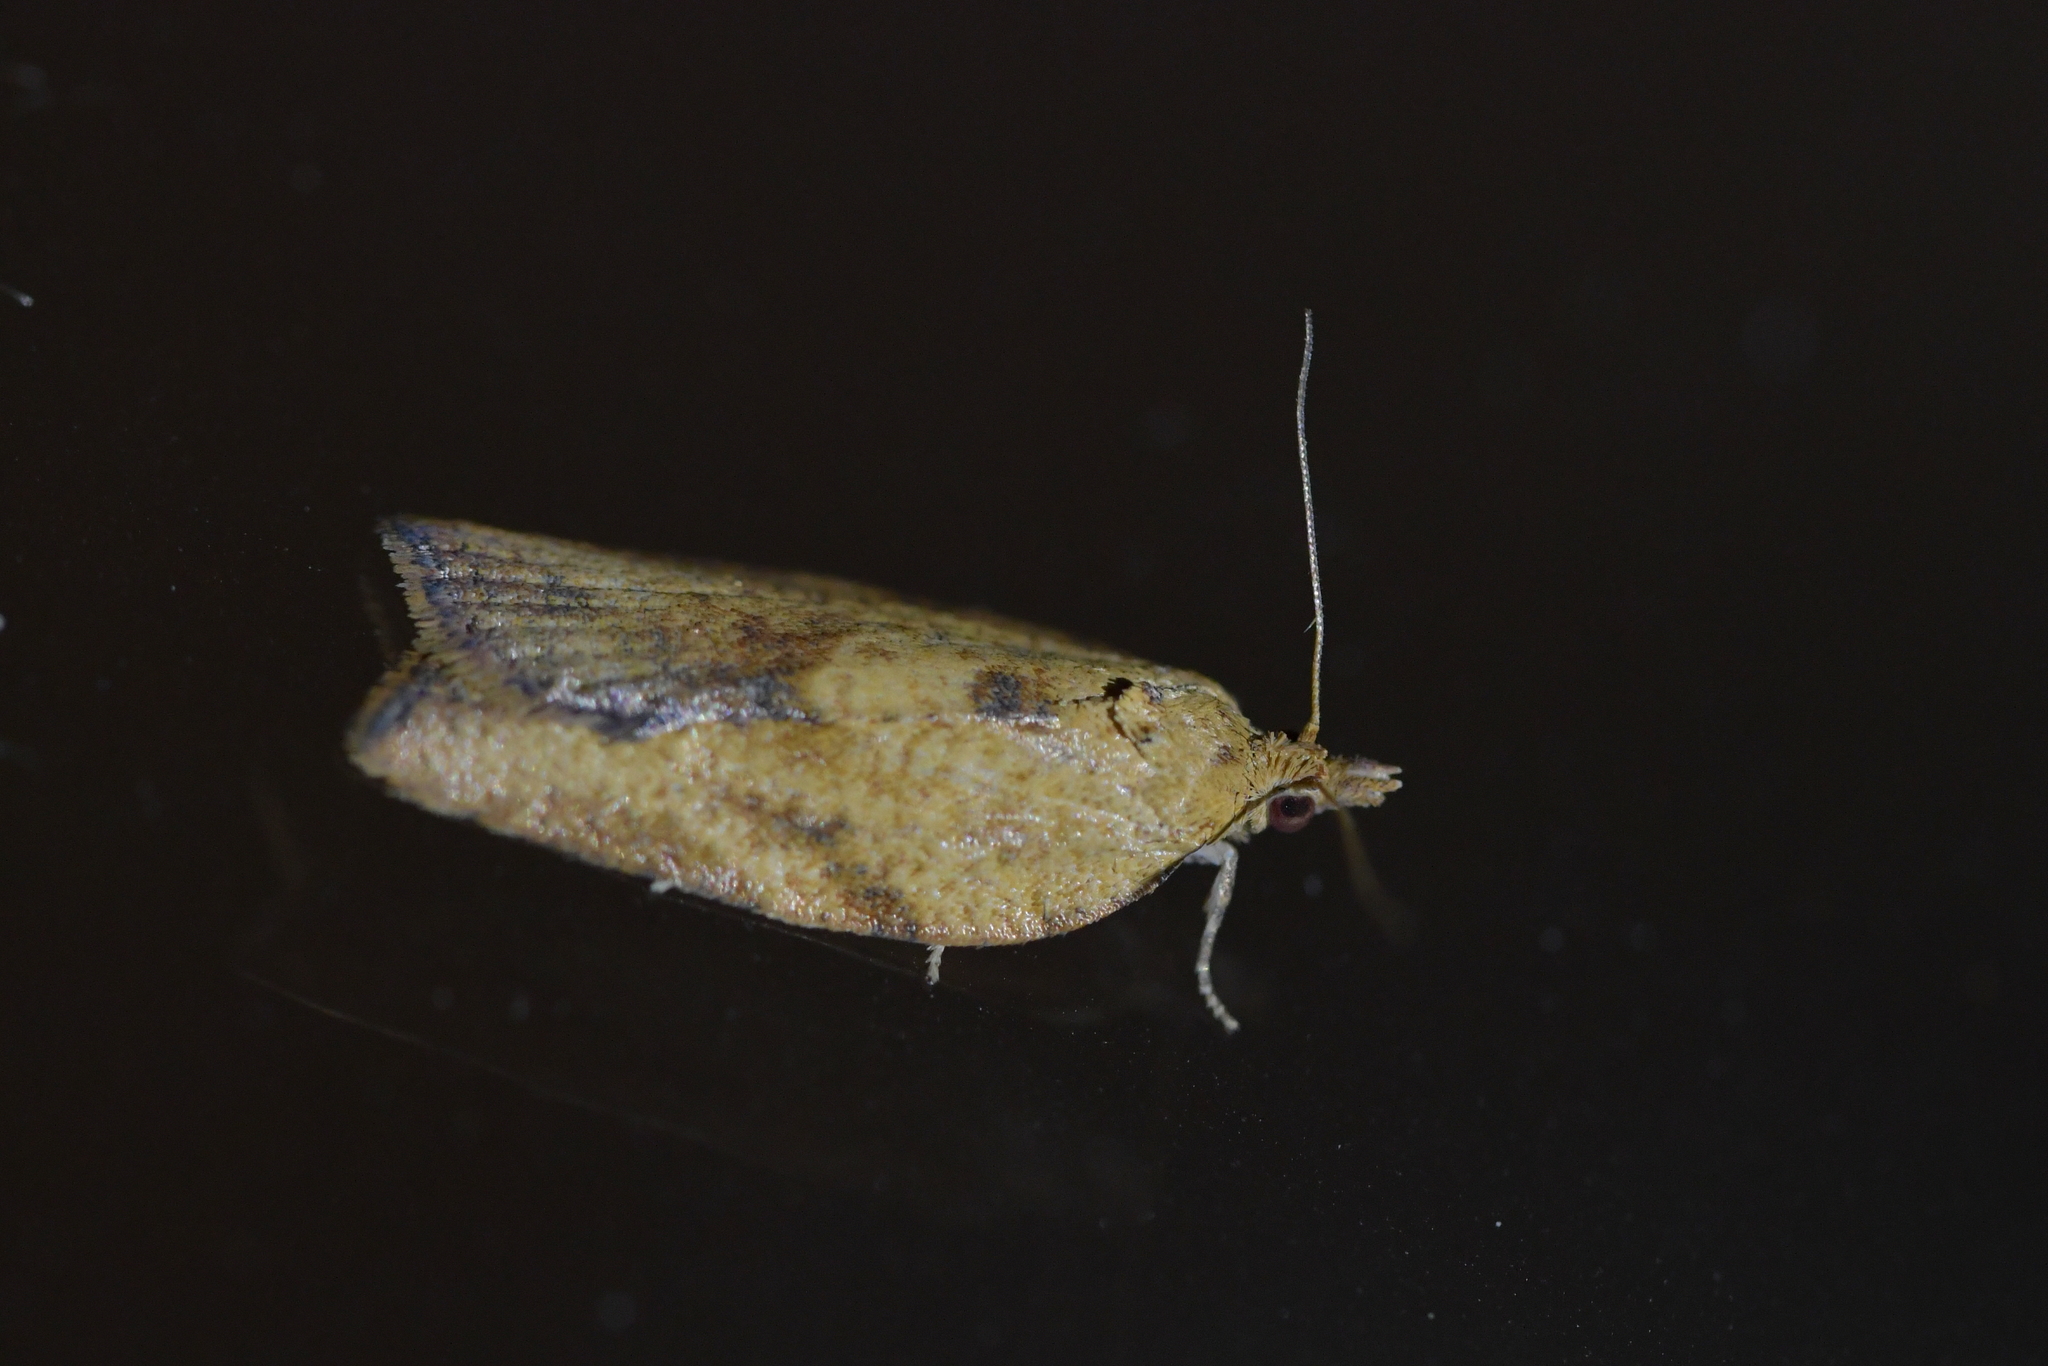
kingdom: Animalia
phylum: Arthropoda
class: Insecta
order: Lepidoptera
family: Tortricidae
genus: Epiphyas
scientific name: Epiphyas postvittana
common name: Light brown apple moth
